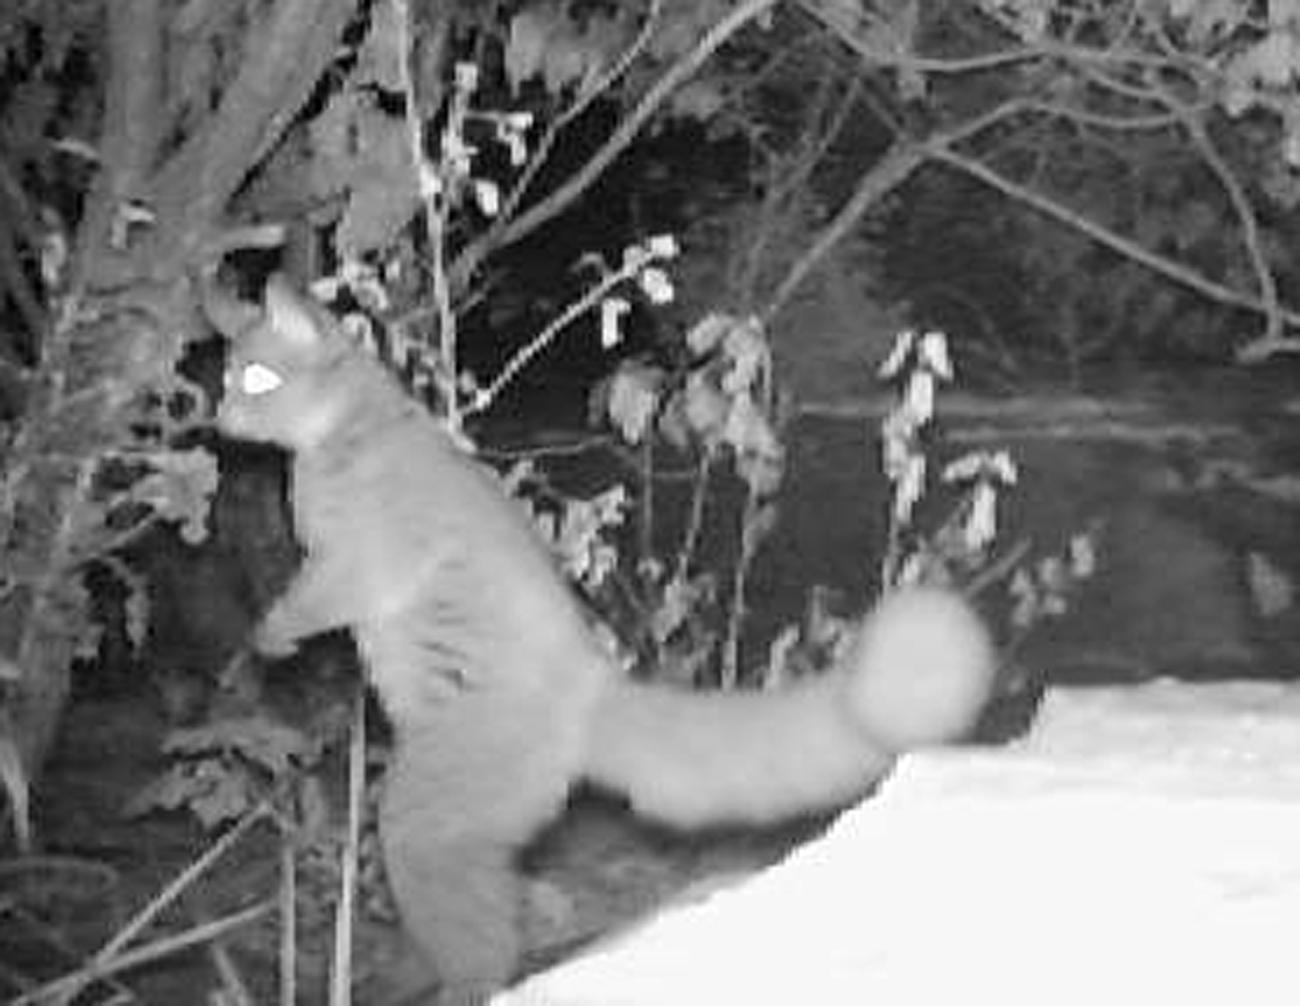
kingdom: Animalia
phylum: Chordata
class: Mammalia
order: Primates
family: Galagidae
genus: Otolemur
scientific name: Otolemur crassicaudatus
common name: Brown greater galago
